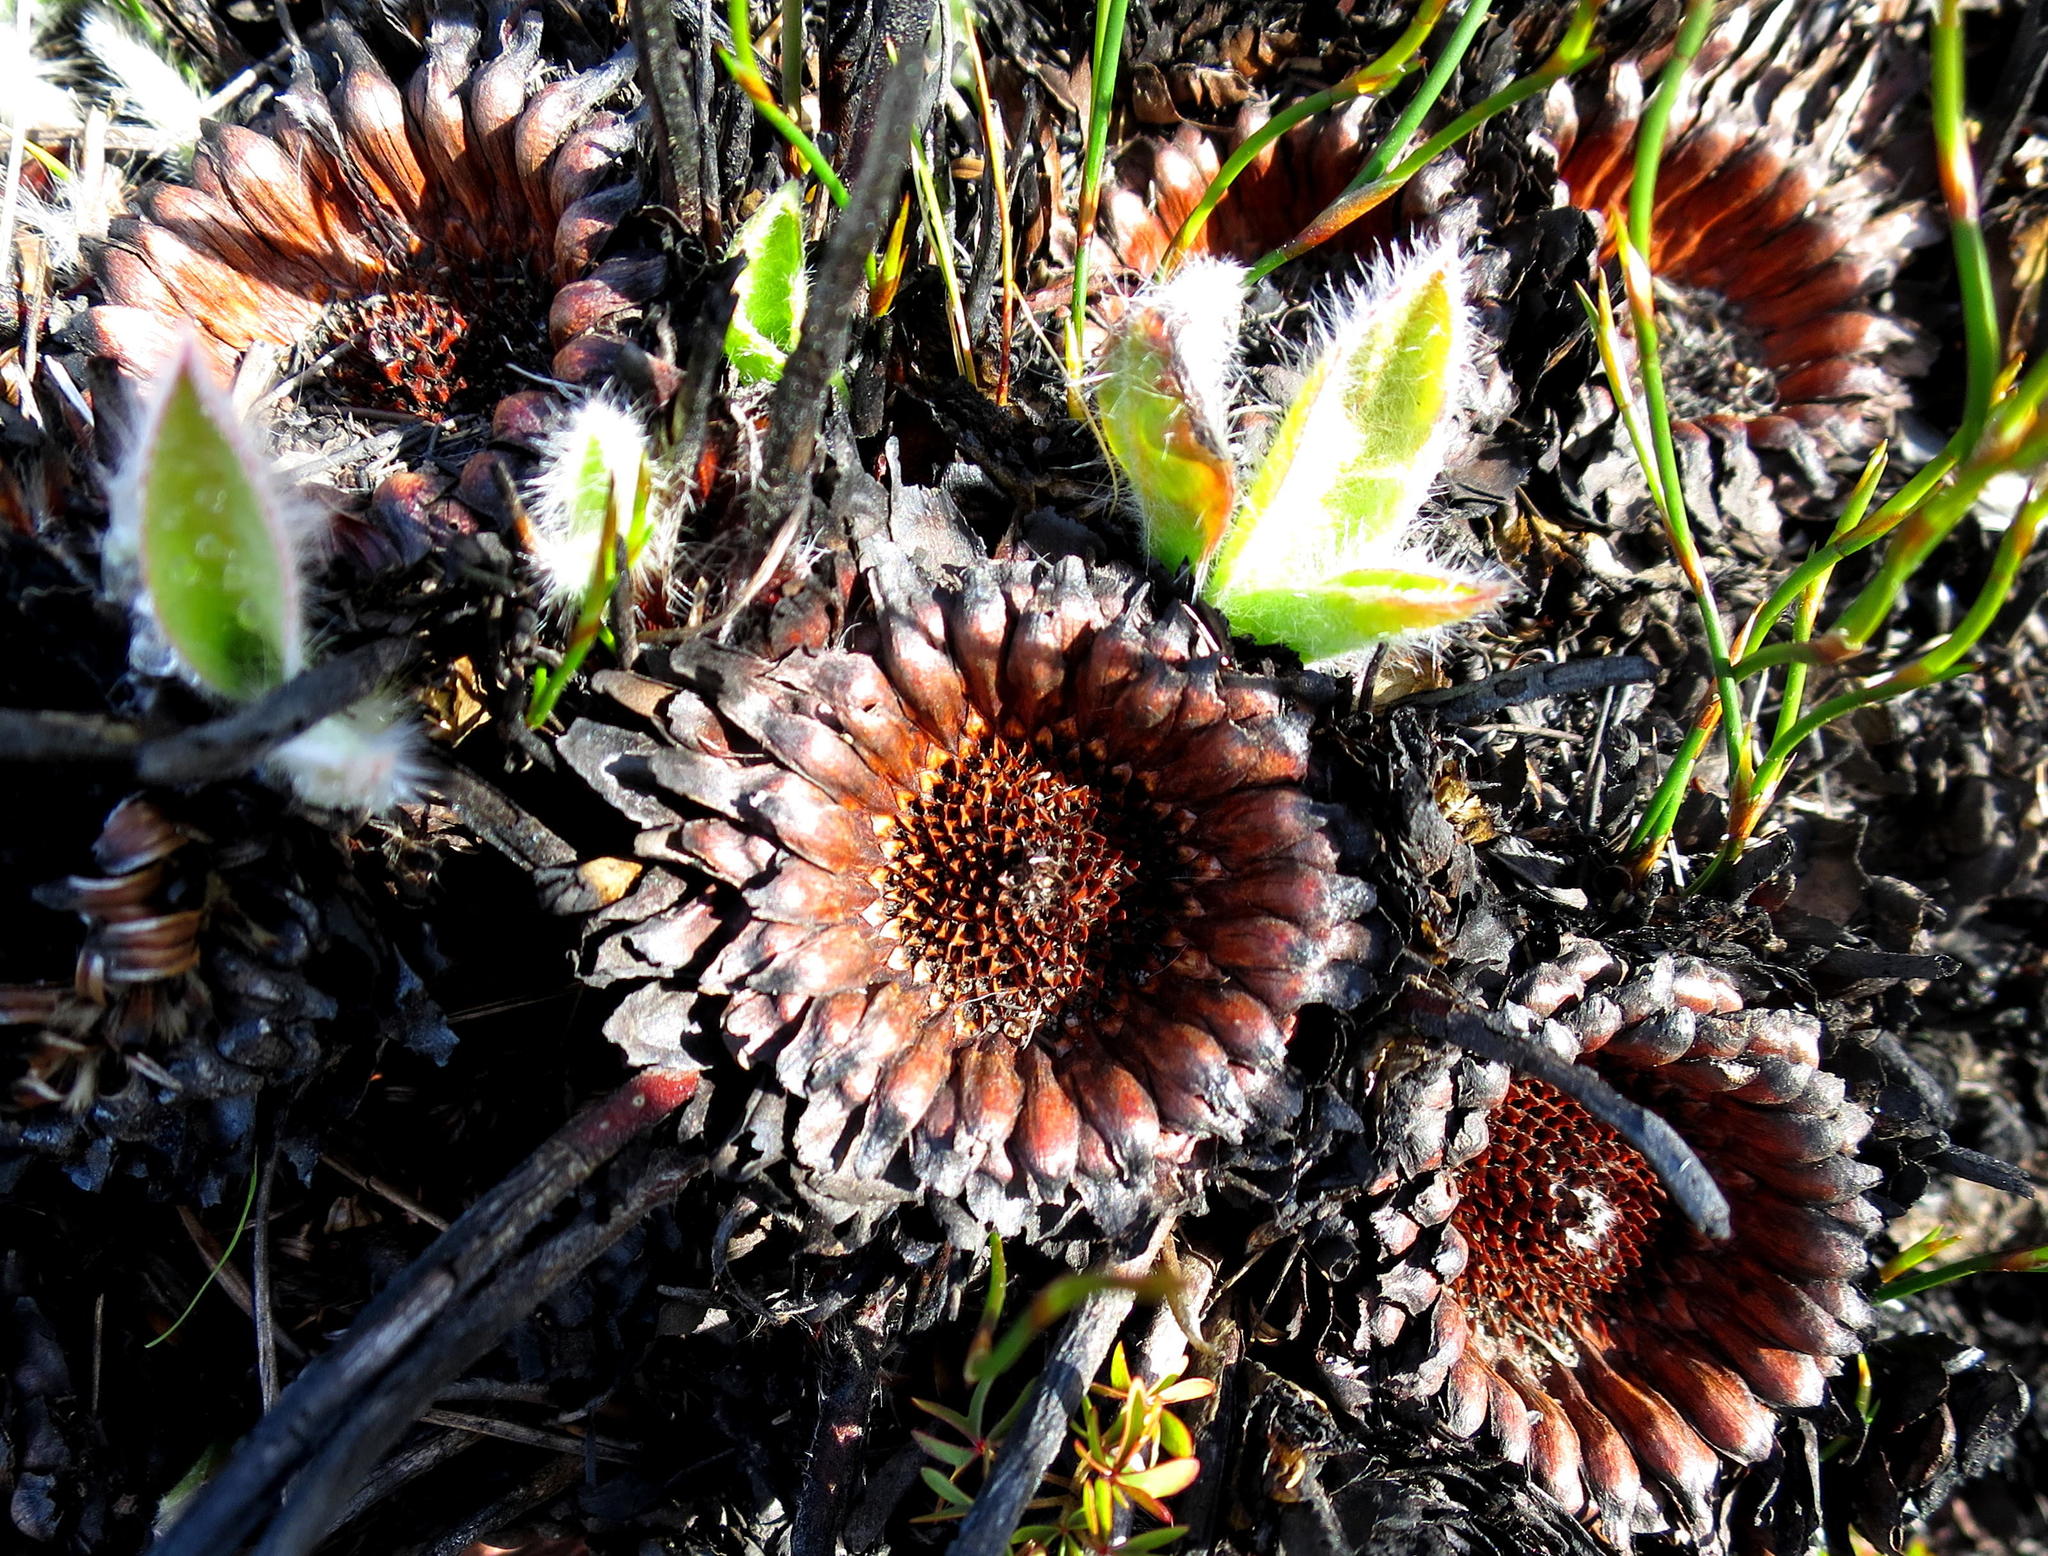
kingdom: Plantae
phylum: Tracheophyta
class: Magnoliopsida
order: Proteales
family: Proteaceae
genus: Protea
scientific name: Protea scolopendriifolia
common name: Harts-tongue-fern sugarbush
